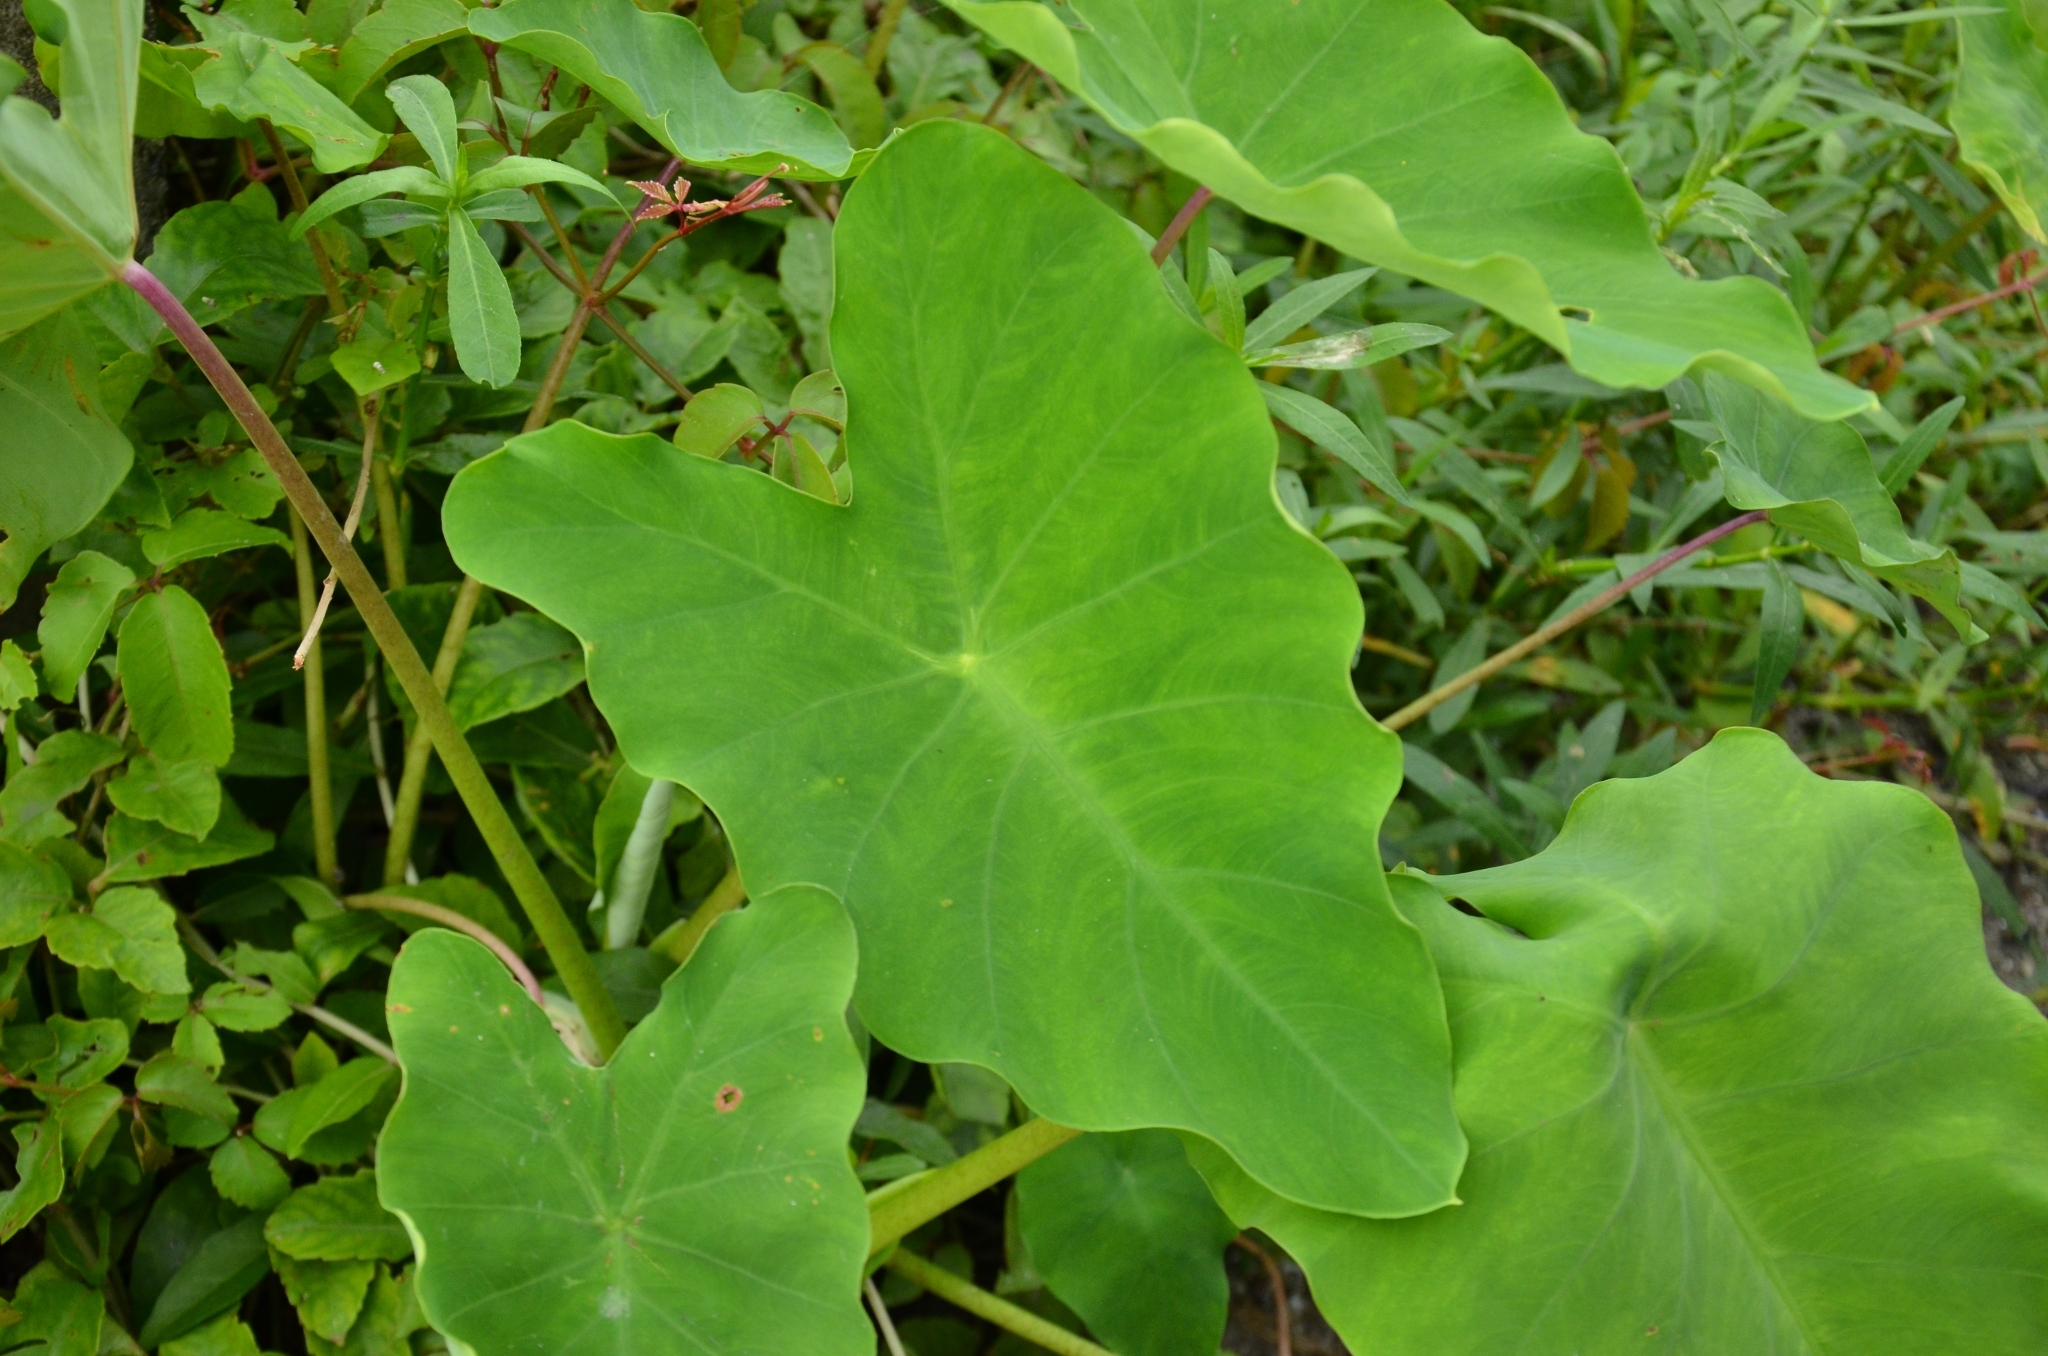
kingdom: Plantae
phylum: Tracheophyta
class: Liliopsida
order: Alismatales
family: Araceae
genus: Colocasia
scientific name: Colocasia esculenta
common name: Taro
